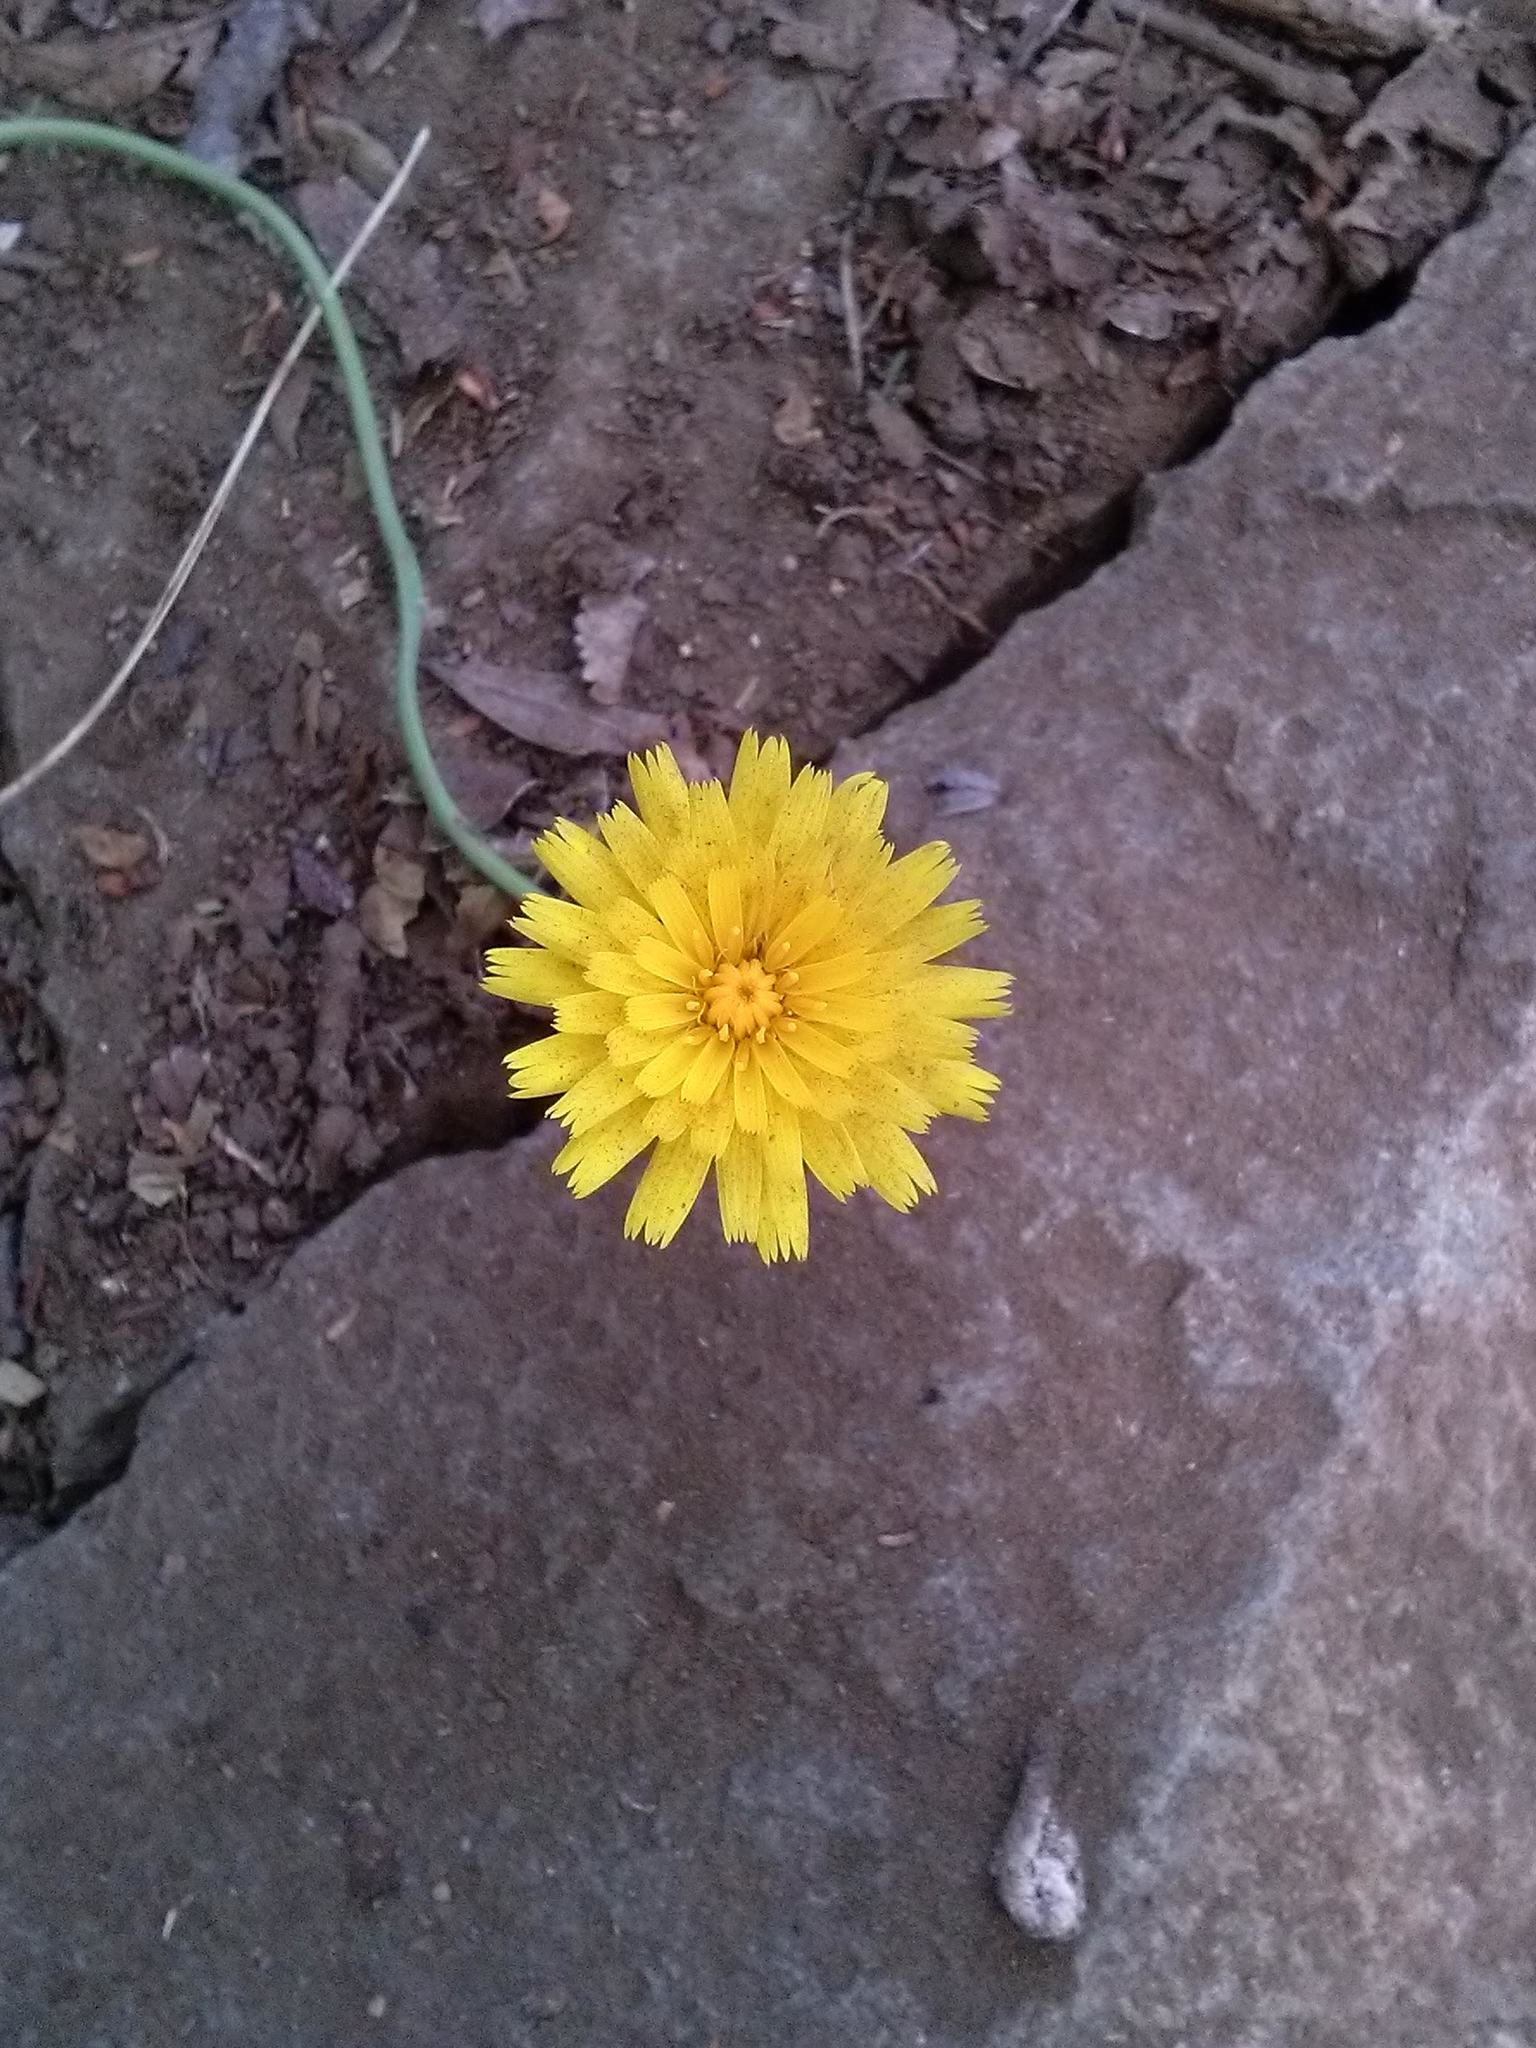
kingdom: Plantae
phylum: Tracheophyta
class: Magnoliopsida
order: Asterales
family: Asteraceae
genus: Hypochaeris
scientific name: Hypochaeris radicata
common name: Flatweed
